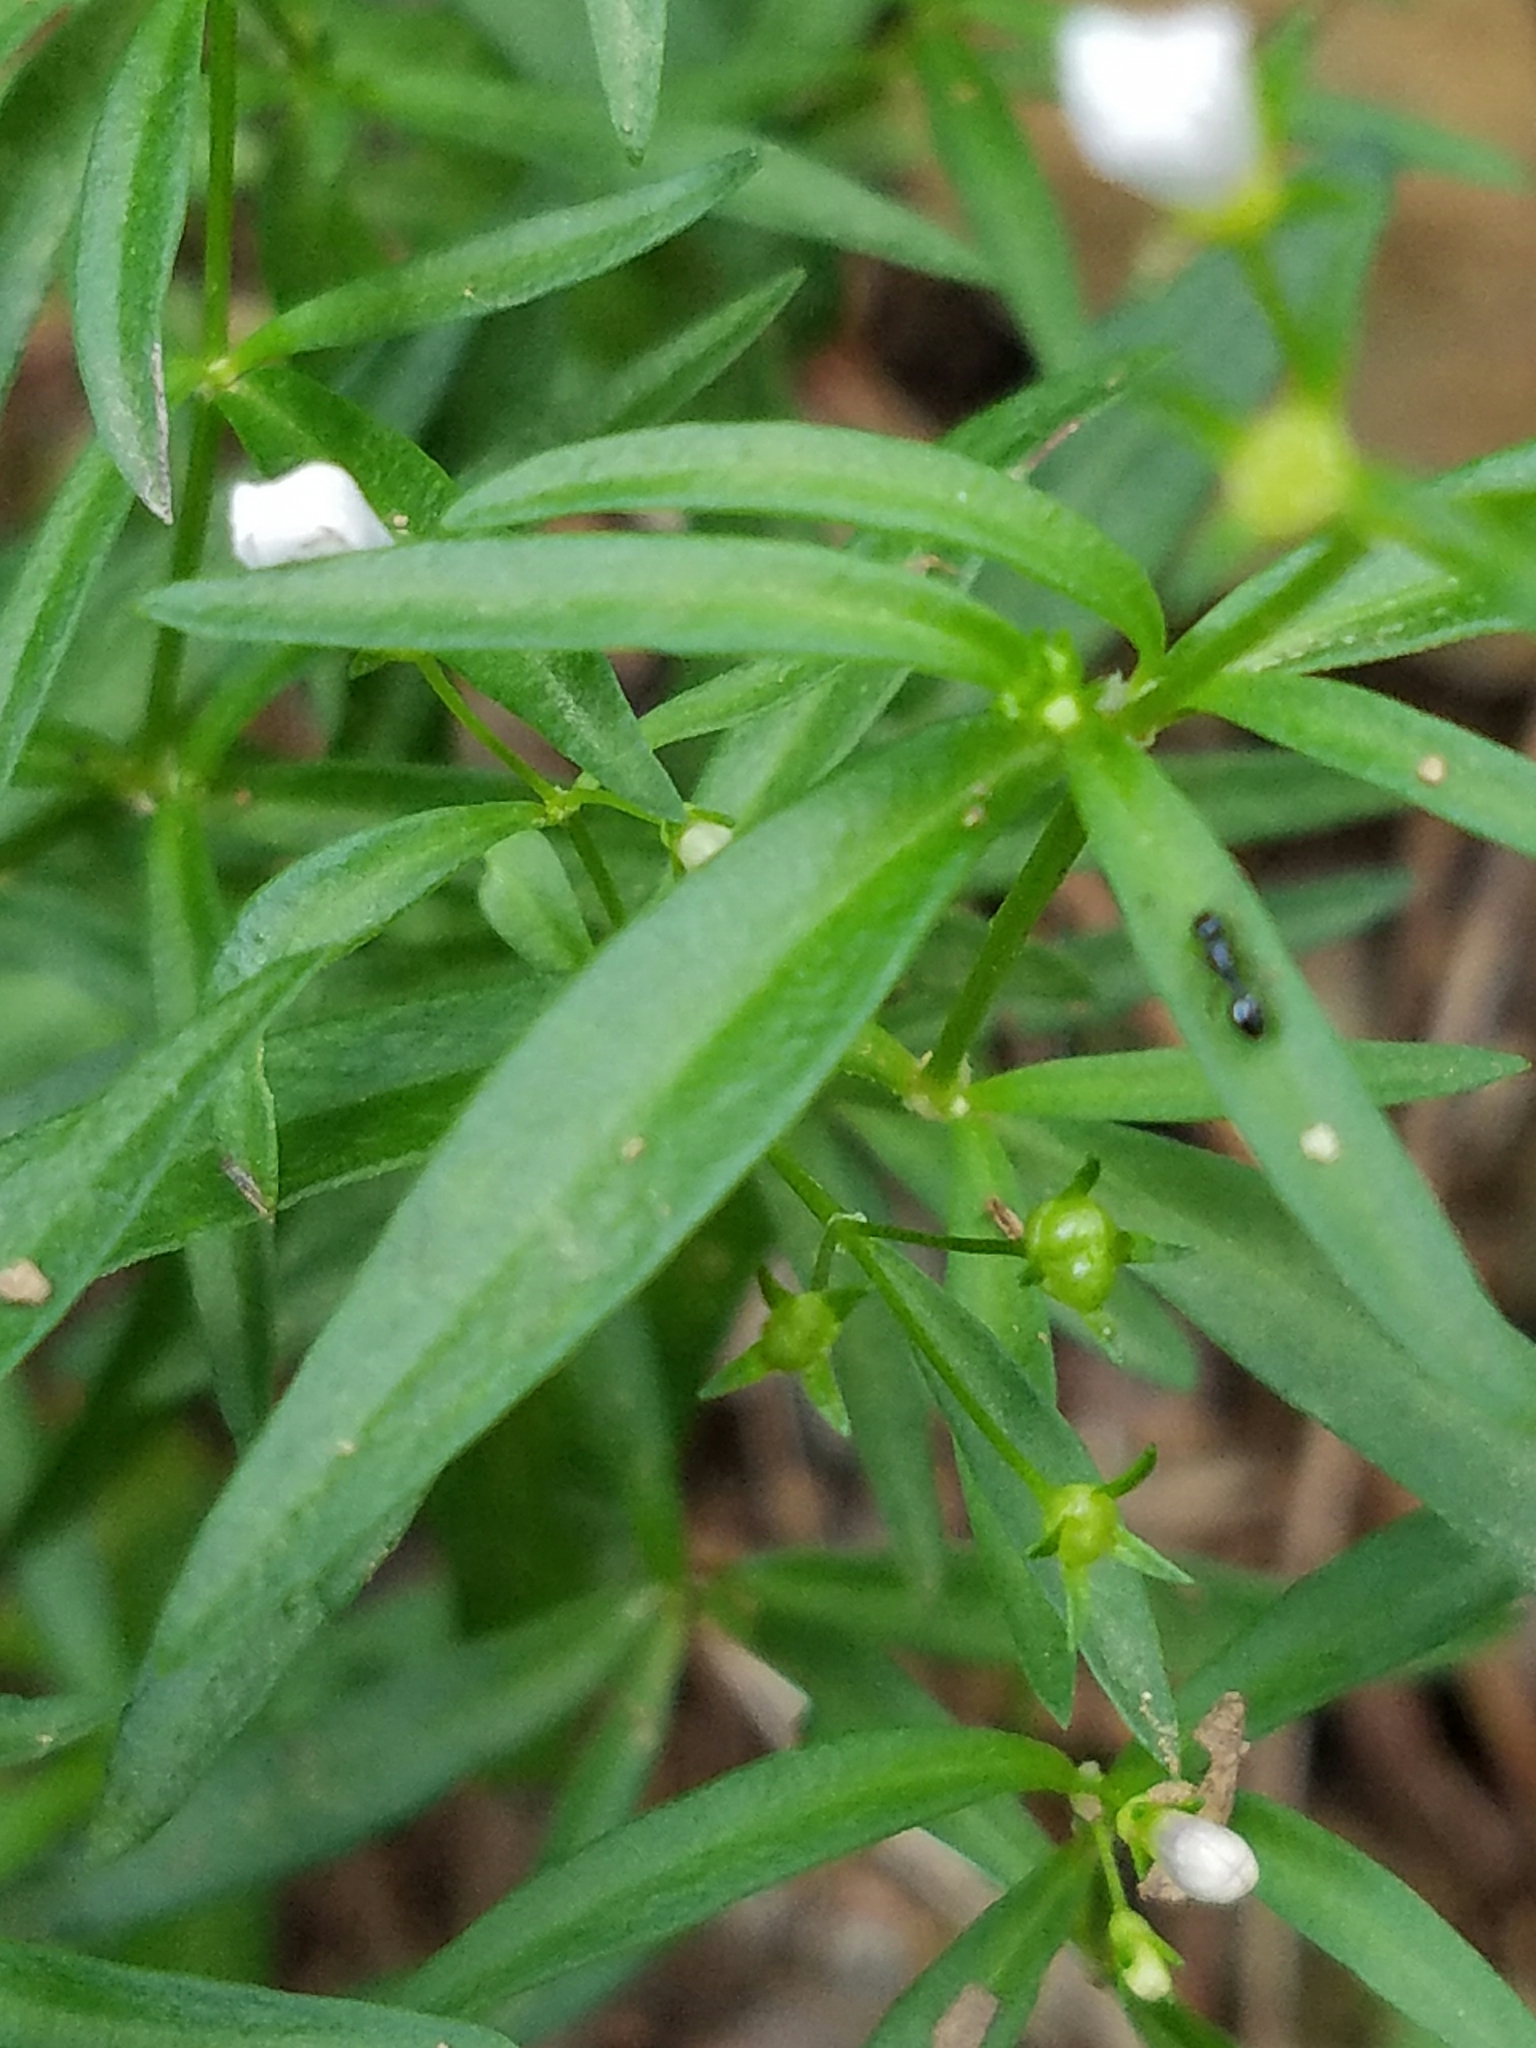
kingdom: Plantae
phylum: Tracheophyta
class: Magnoliopsida
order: Gentianales
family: Rubiaceae
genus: Houstonia
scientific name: Houstonia longifolia
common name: Long-leaved bluets
